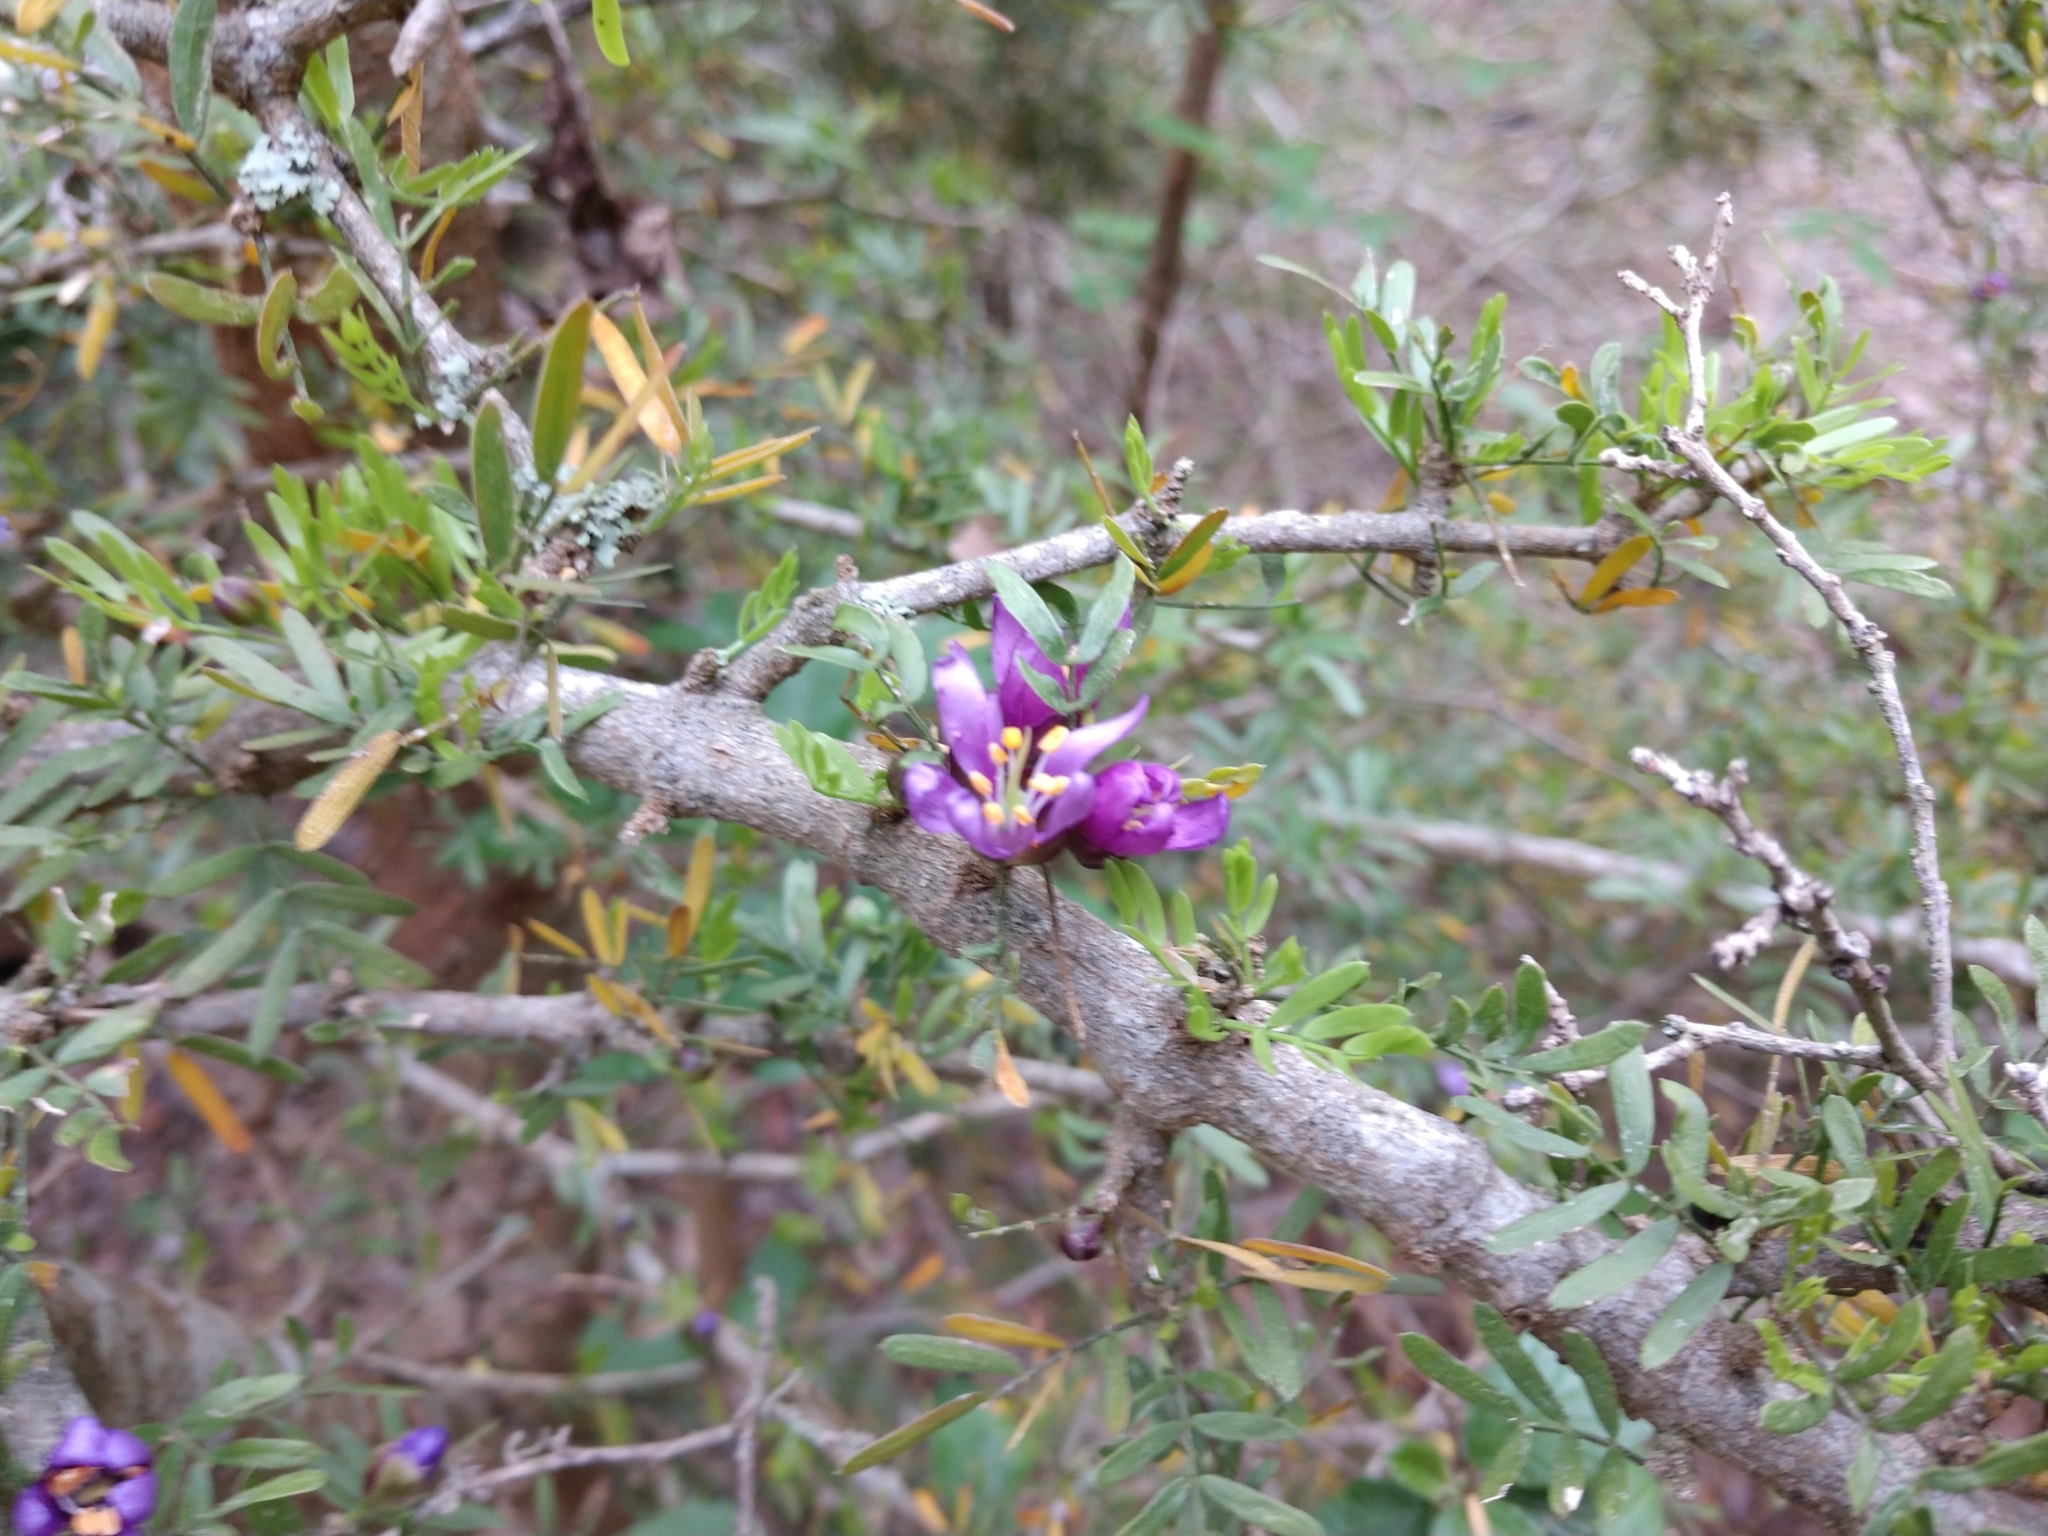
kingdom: Plantae
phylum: Tracheophyta
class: Magnoliopsida
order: Zygophyllales
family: Zygophyllaceae
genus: Porlieria
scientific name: Porlieria angustifolia
